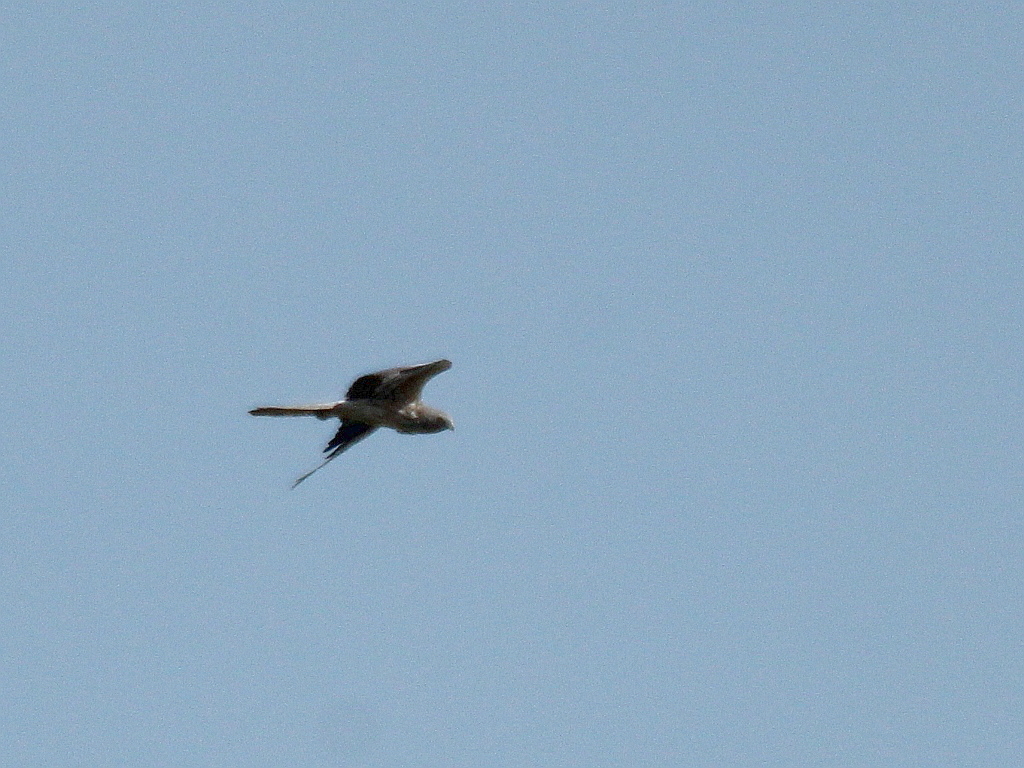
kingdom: Animalia
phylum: Chordata
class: Aves
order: Accipitriformes
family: Accipitridae
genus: Circus
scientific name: Circus pygargus
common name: Montagu's harrier
